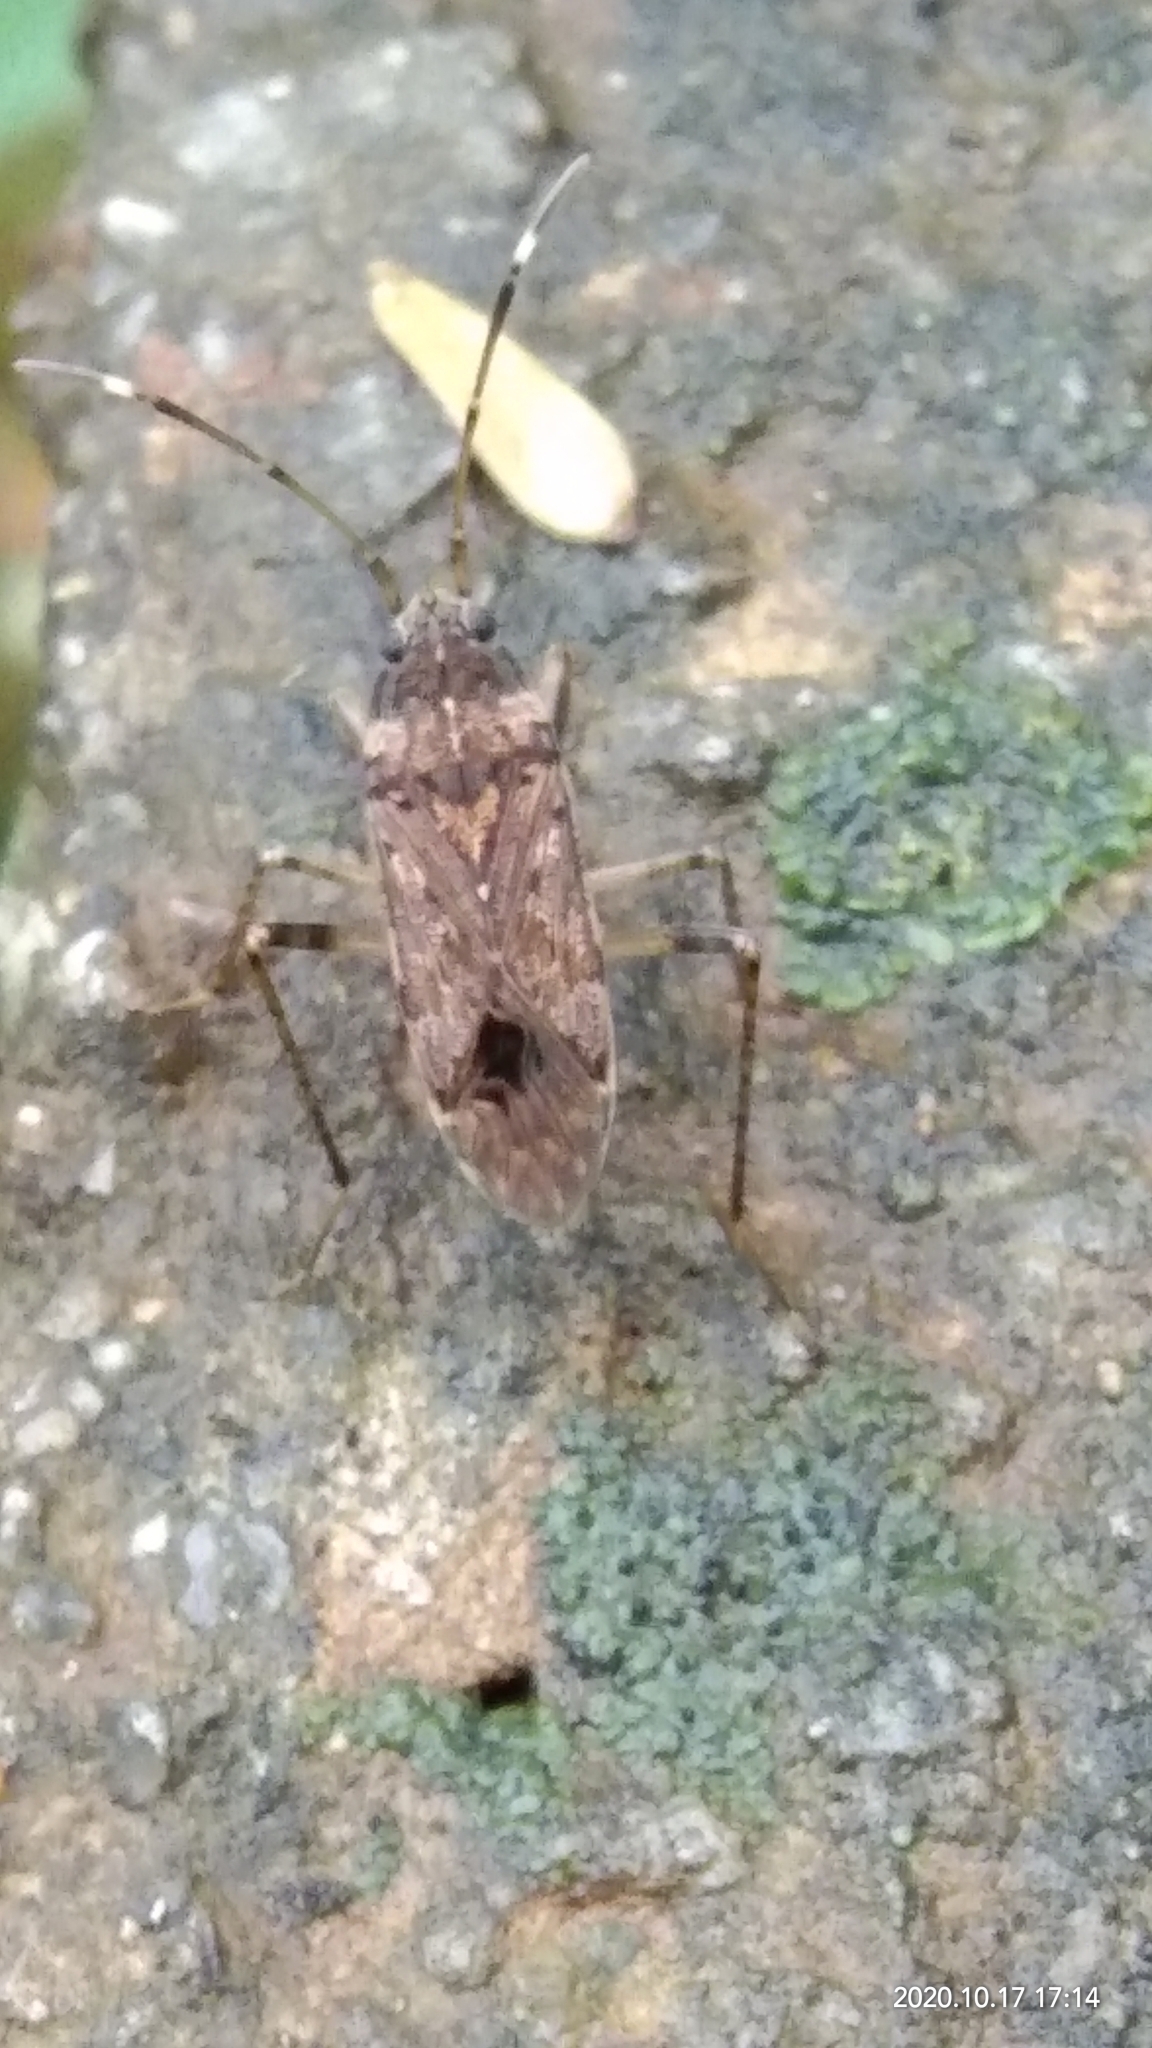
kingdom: Animalia
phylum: Arthropoda
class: Insecta
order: Hemiptera
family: Rhyparochromidae
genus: Elasmolomus
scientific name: Elasmolomus pallens
